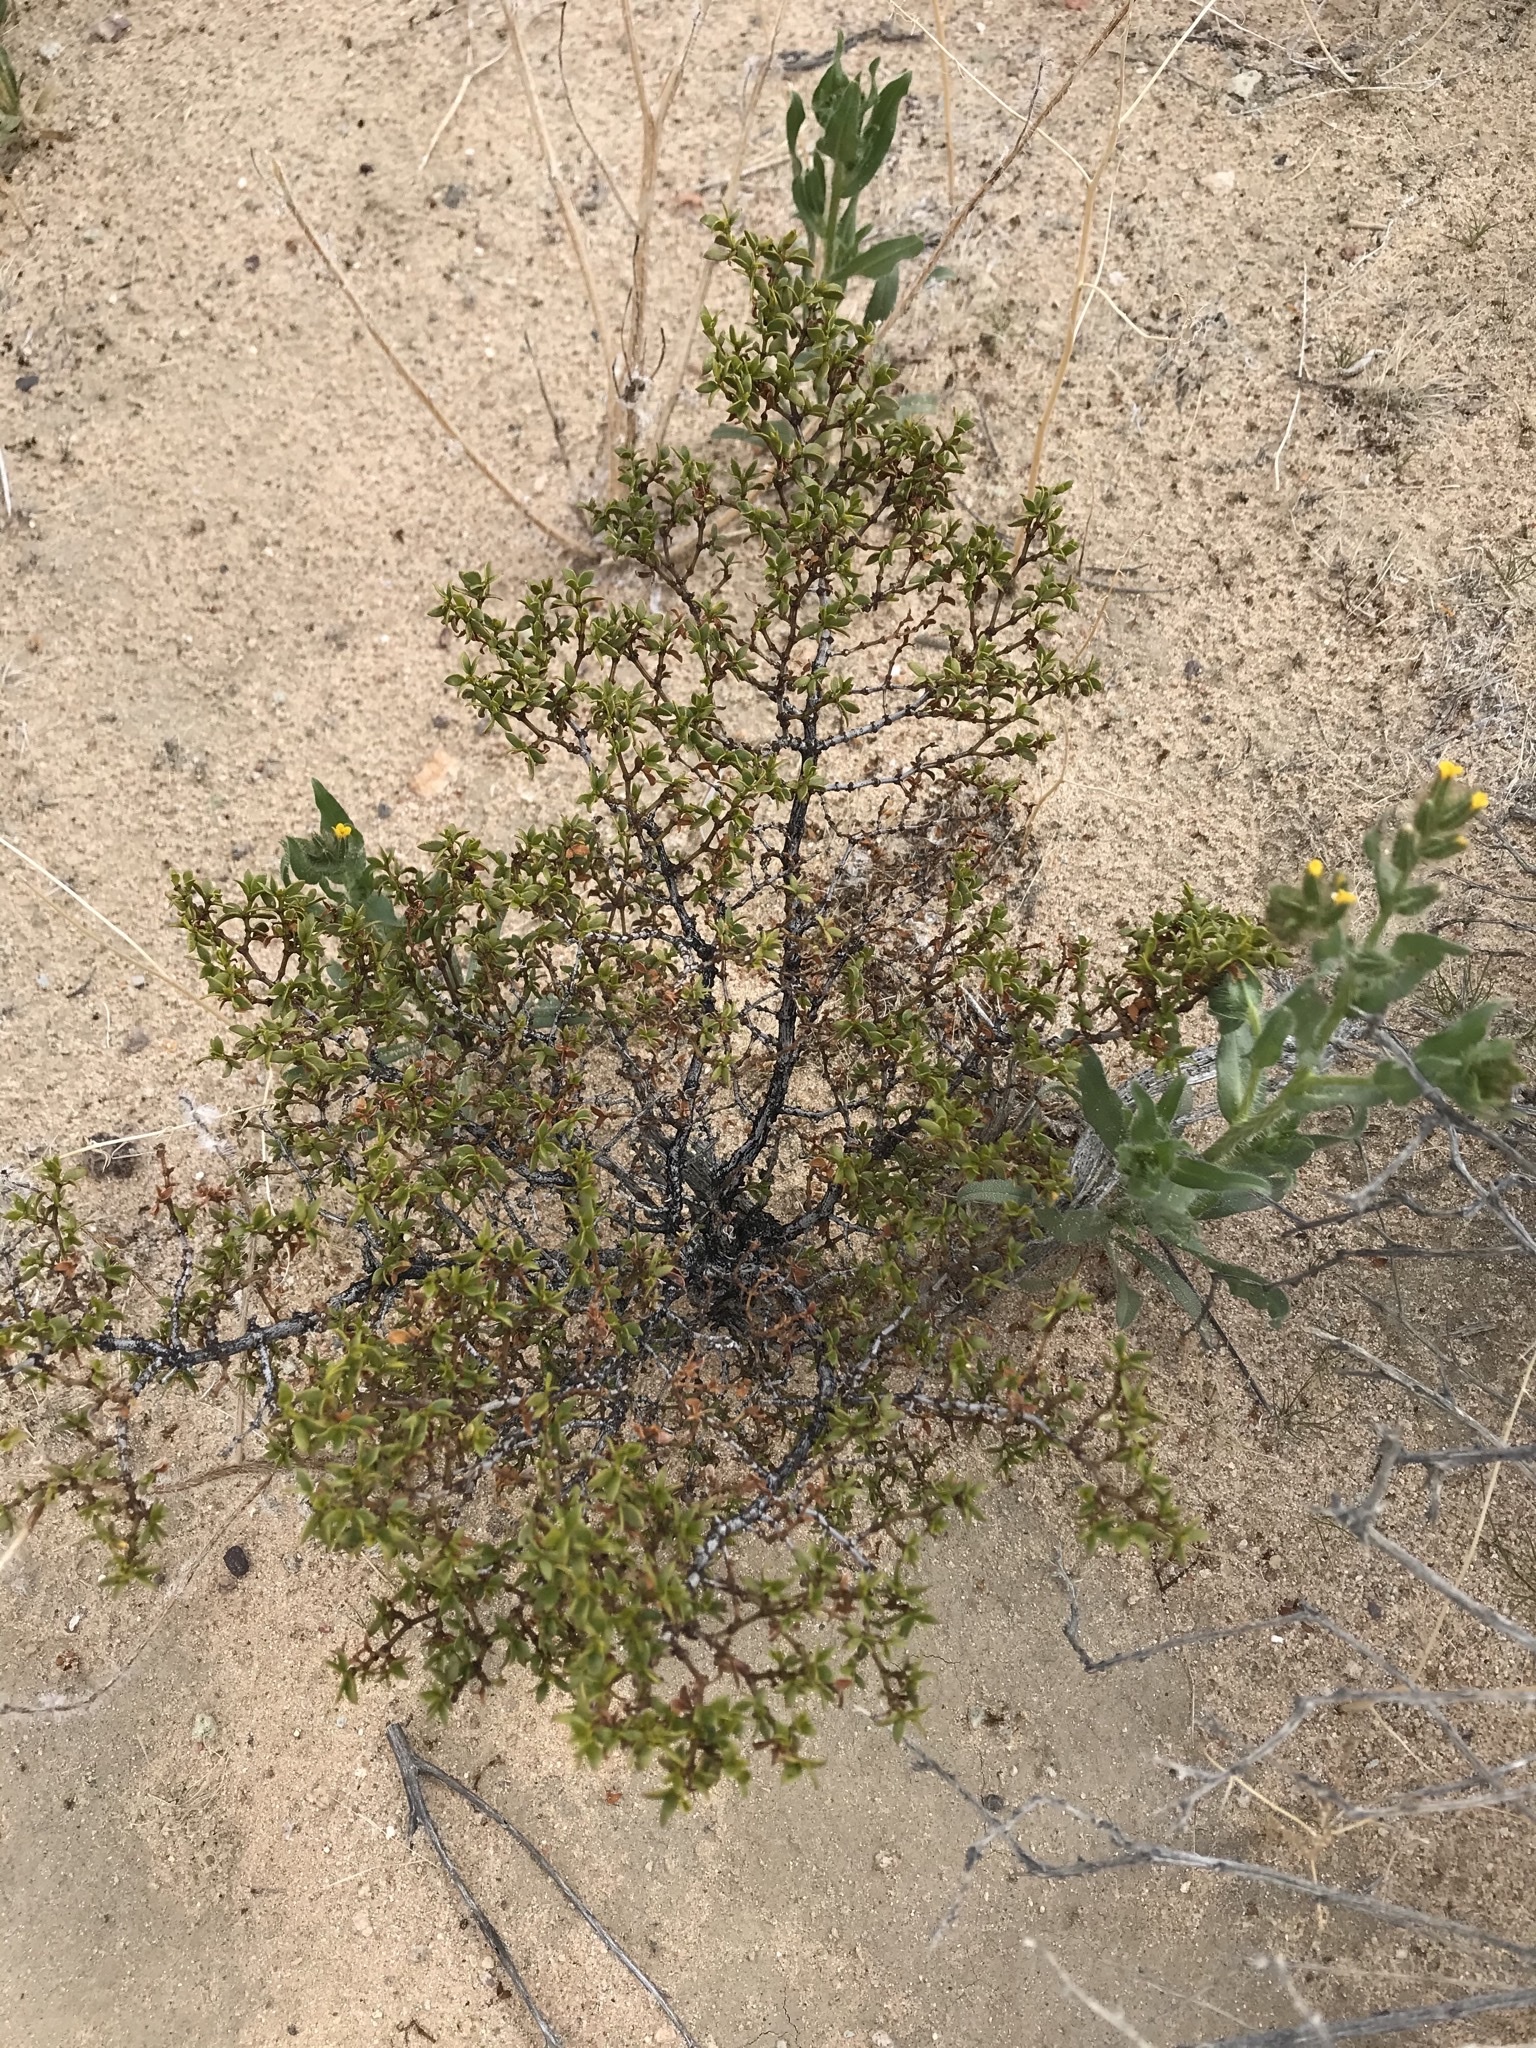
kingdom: Plantae
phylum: Tracheophyta
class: Magnoliopsida
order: Zygophyllales
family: Zygophyllaceae
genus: Larrea
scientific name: Larrea tridentata
